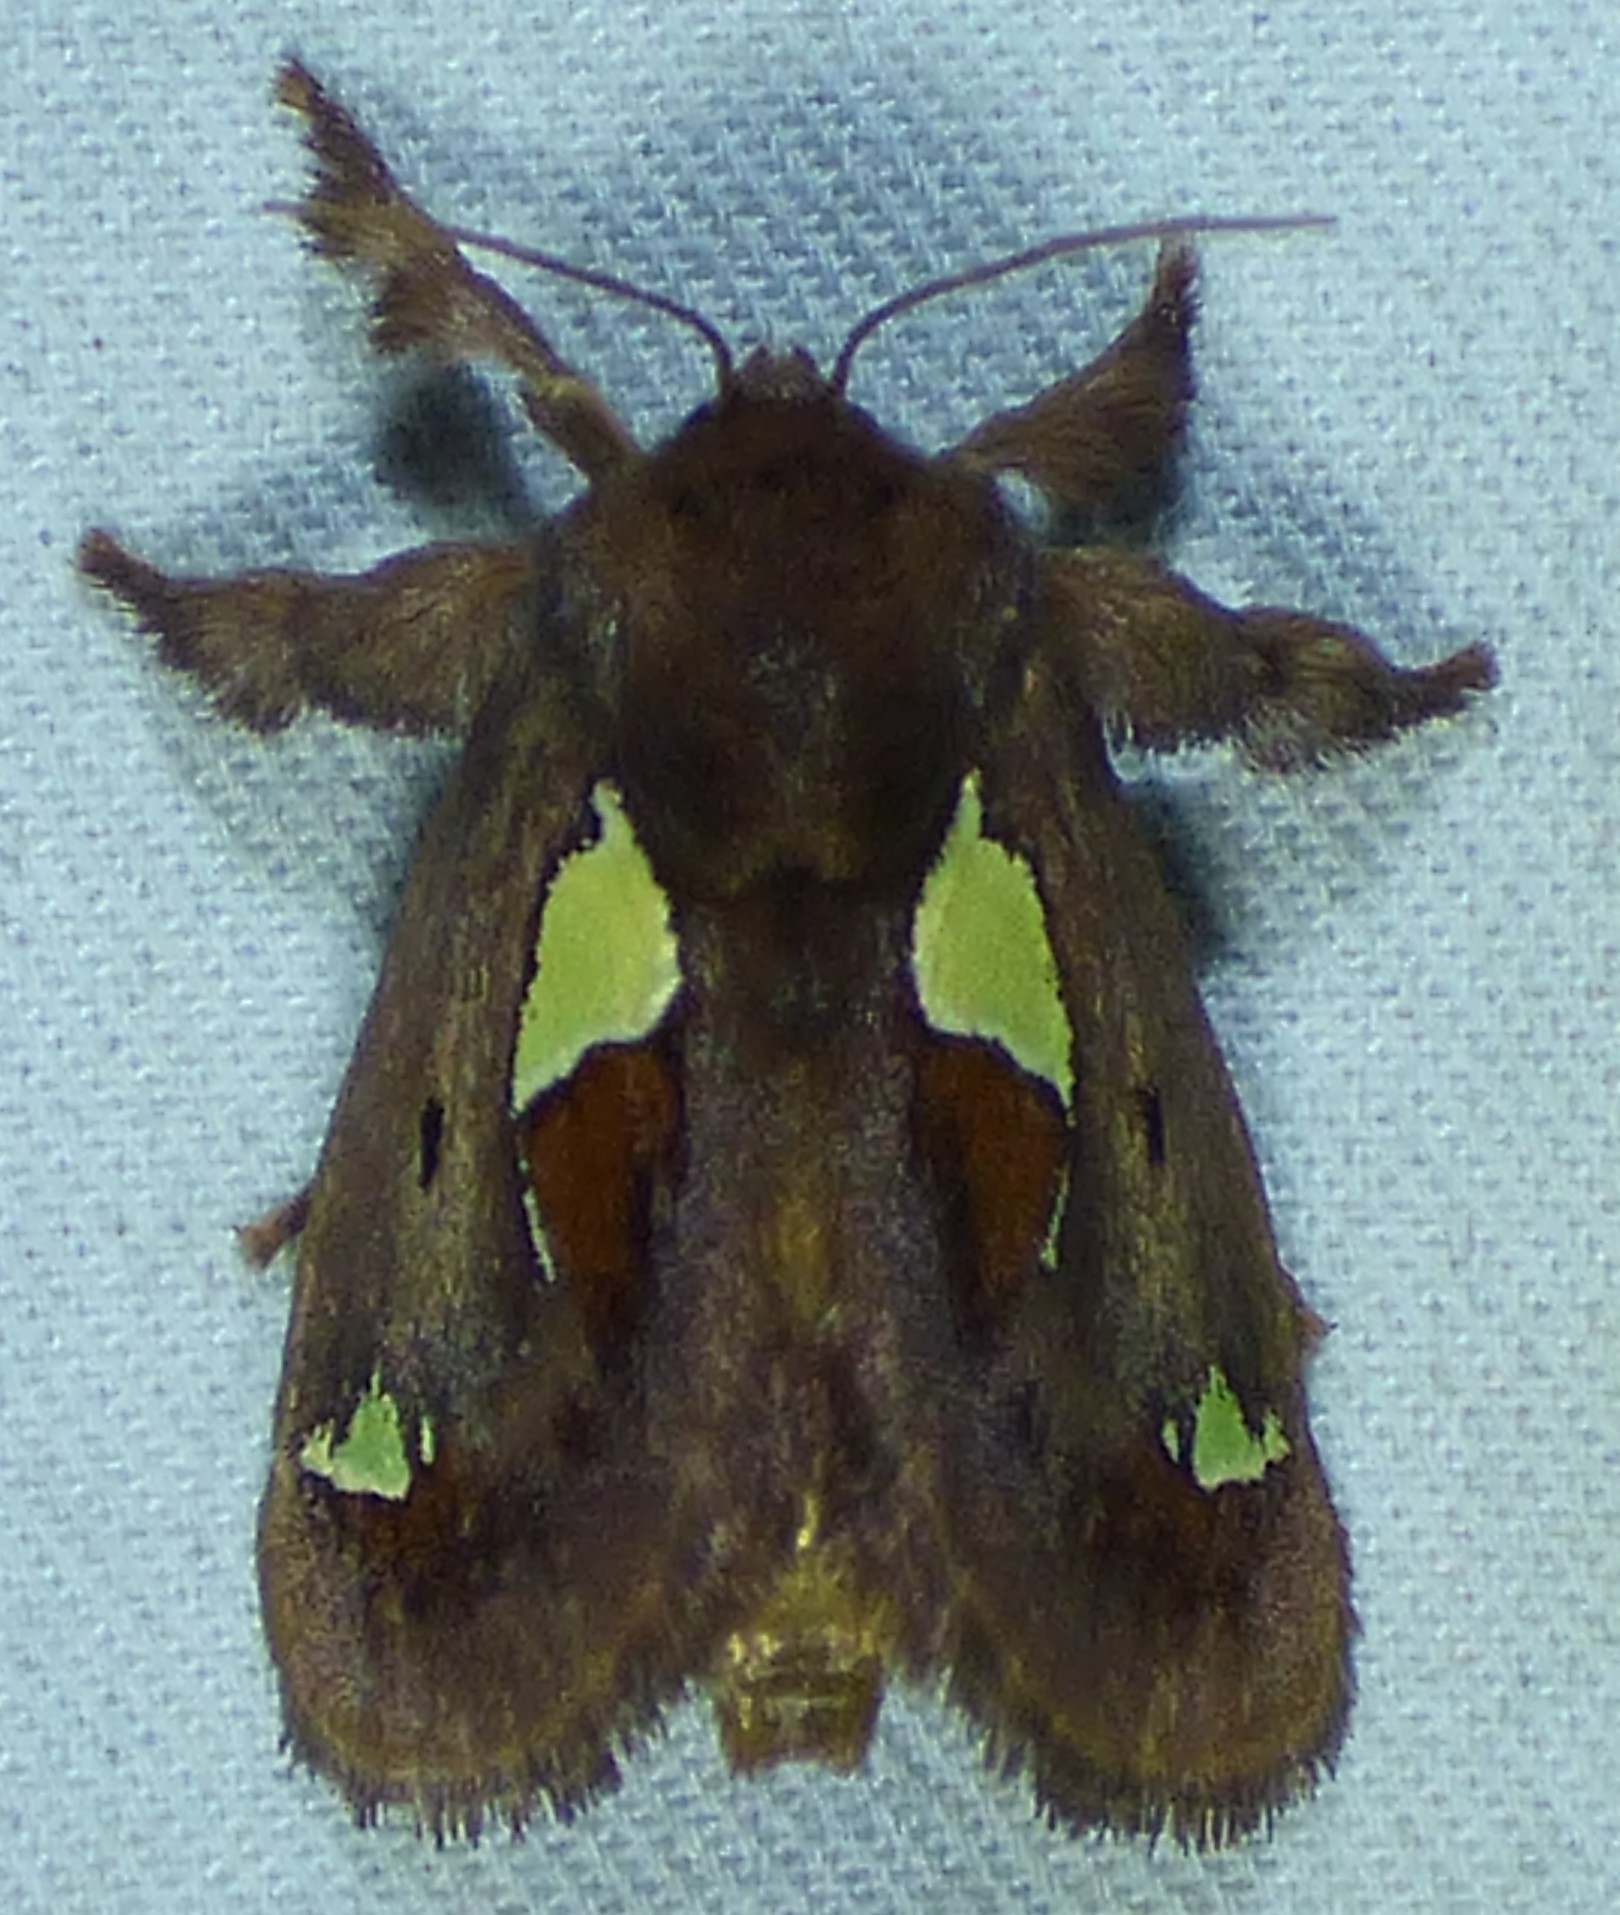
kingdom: Animalia
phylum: Arthropoda
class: Insecta
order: Lepidoptera
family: Limacodidae
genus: Euclea
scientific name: Euclea delphinii
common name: Spiny oak-slug moth
